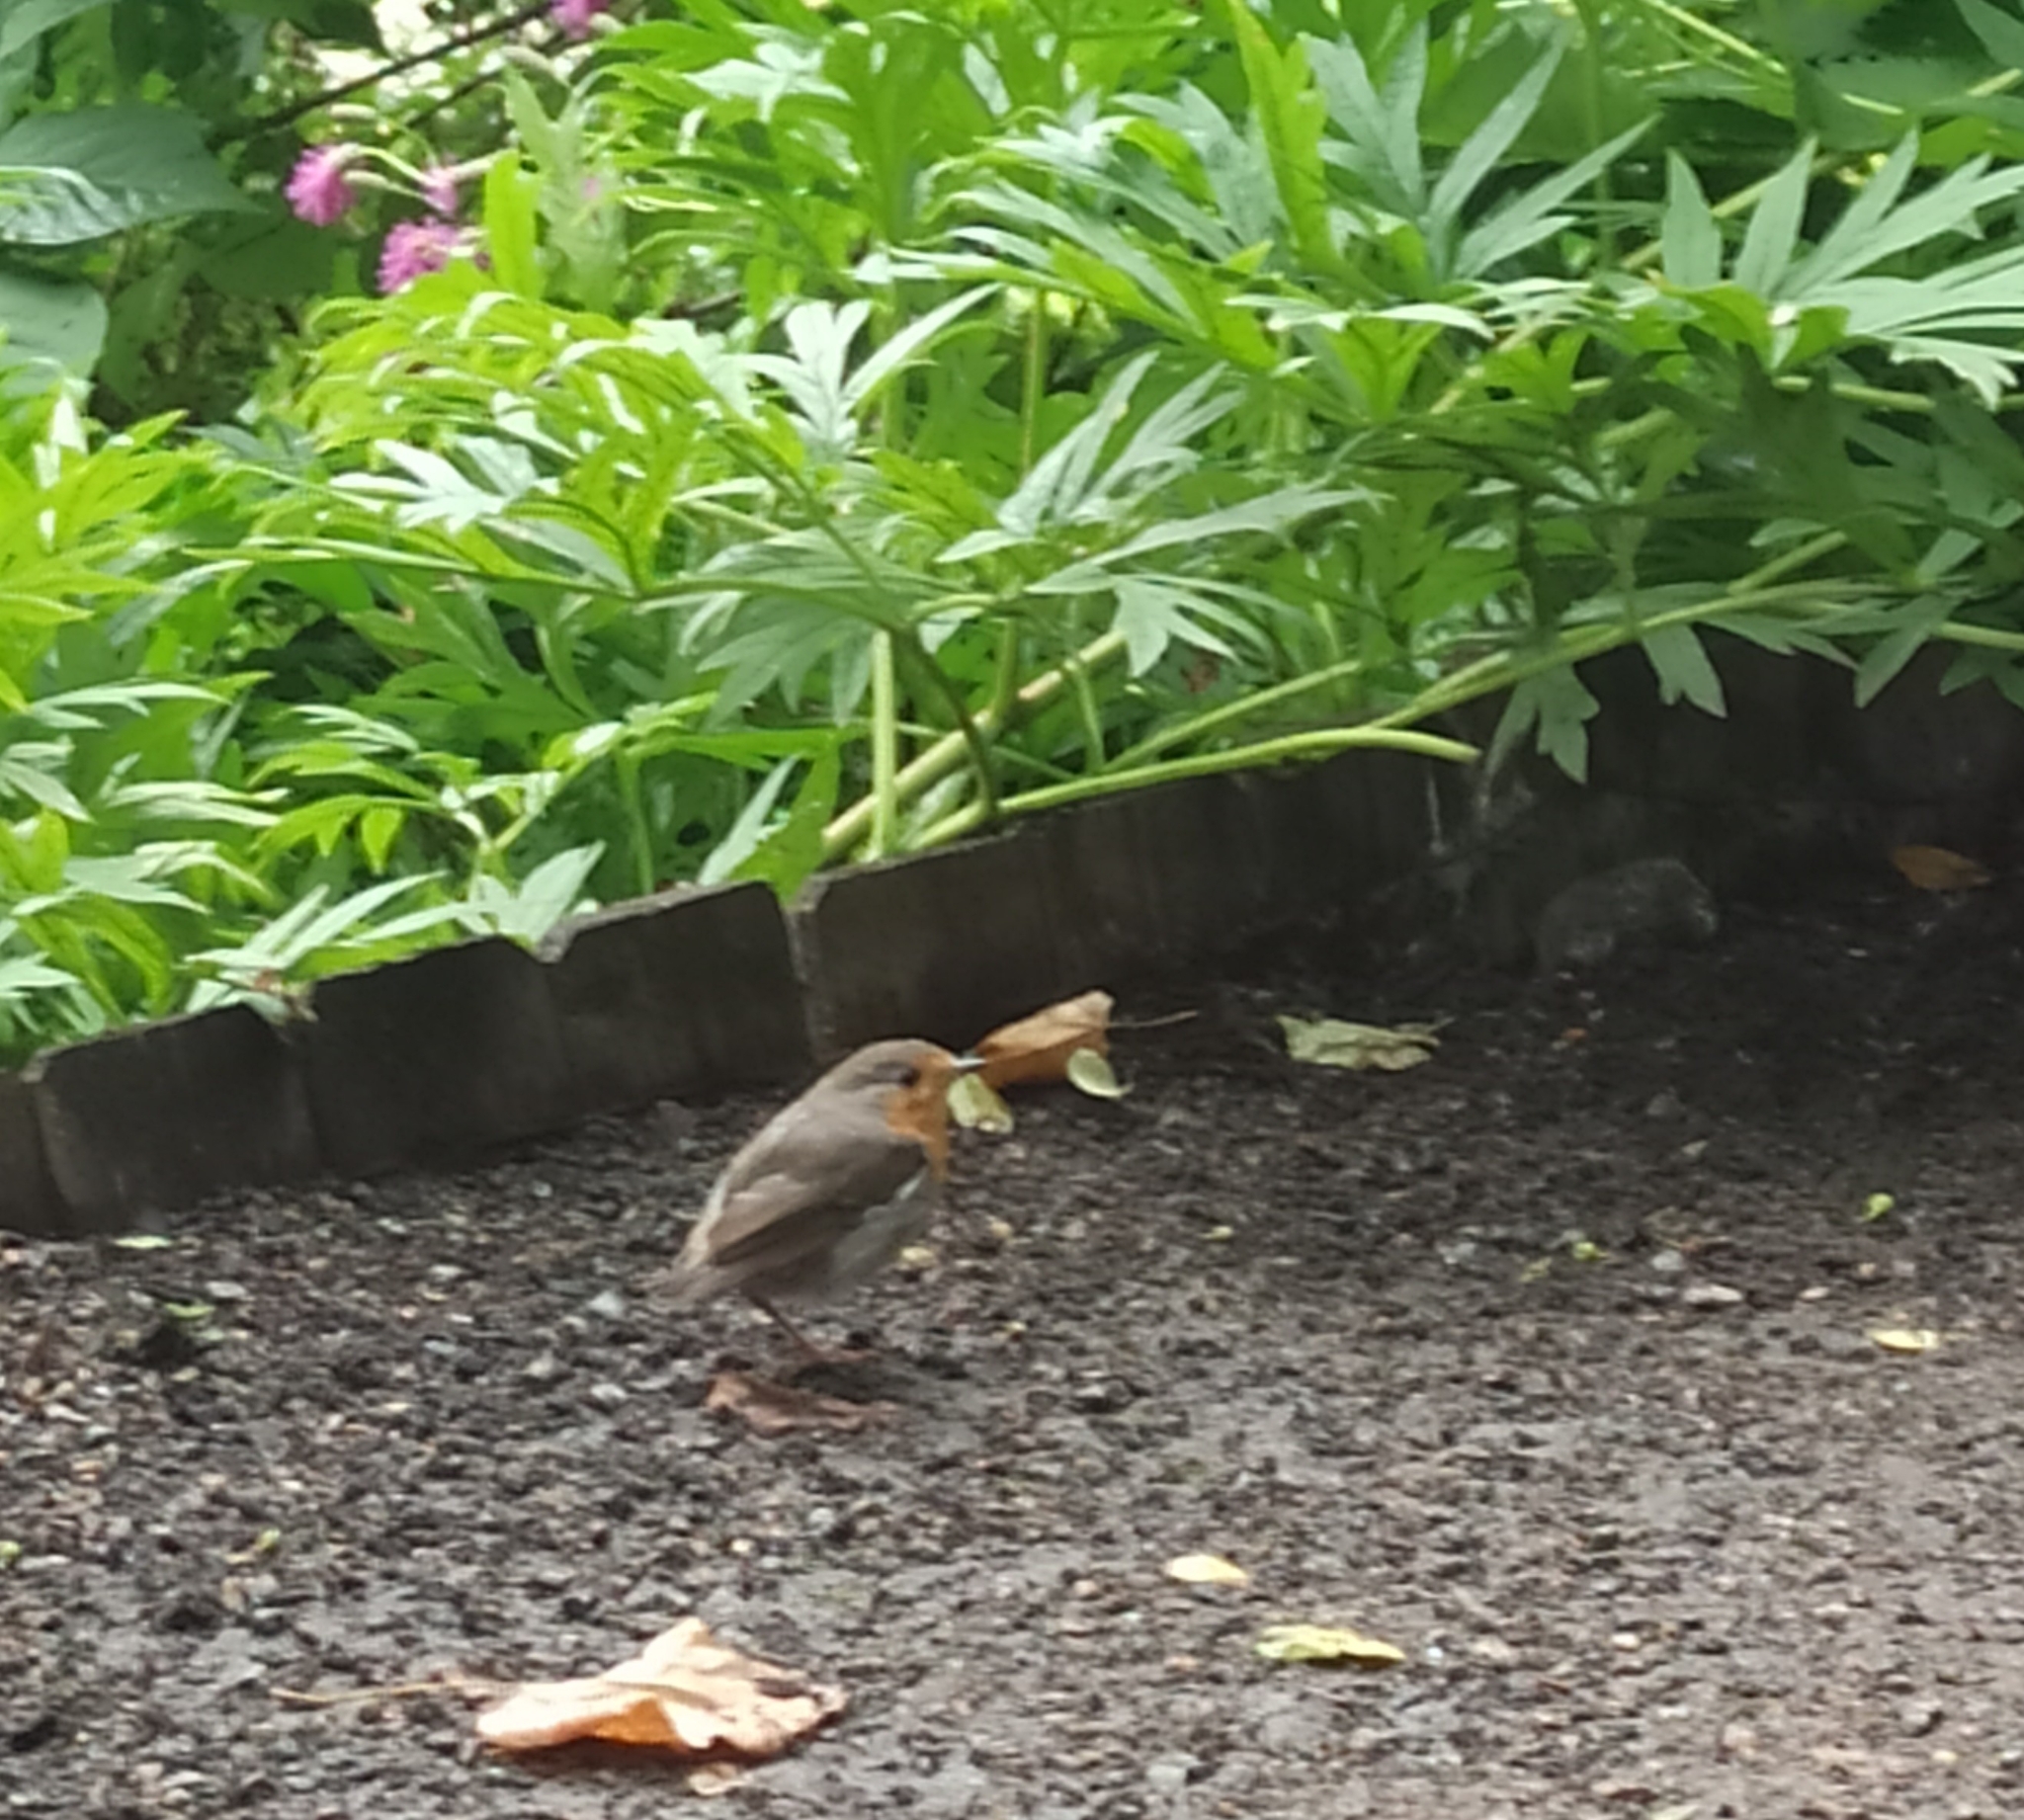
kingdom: Animalia
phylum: Chordata
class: Aves
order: Passeriformes
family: Muscicapidae
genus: Erithacus
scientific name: Erithacus rubecula
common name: European robin
